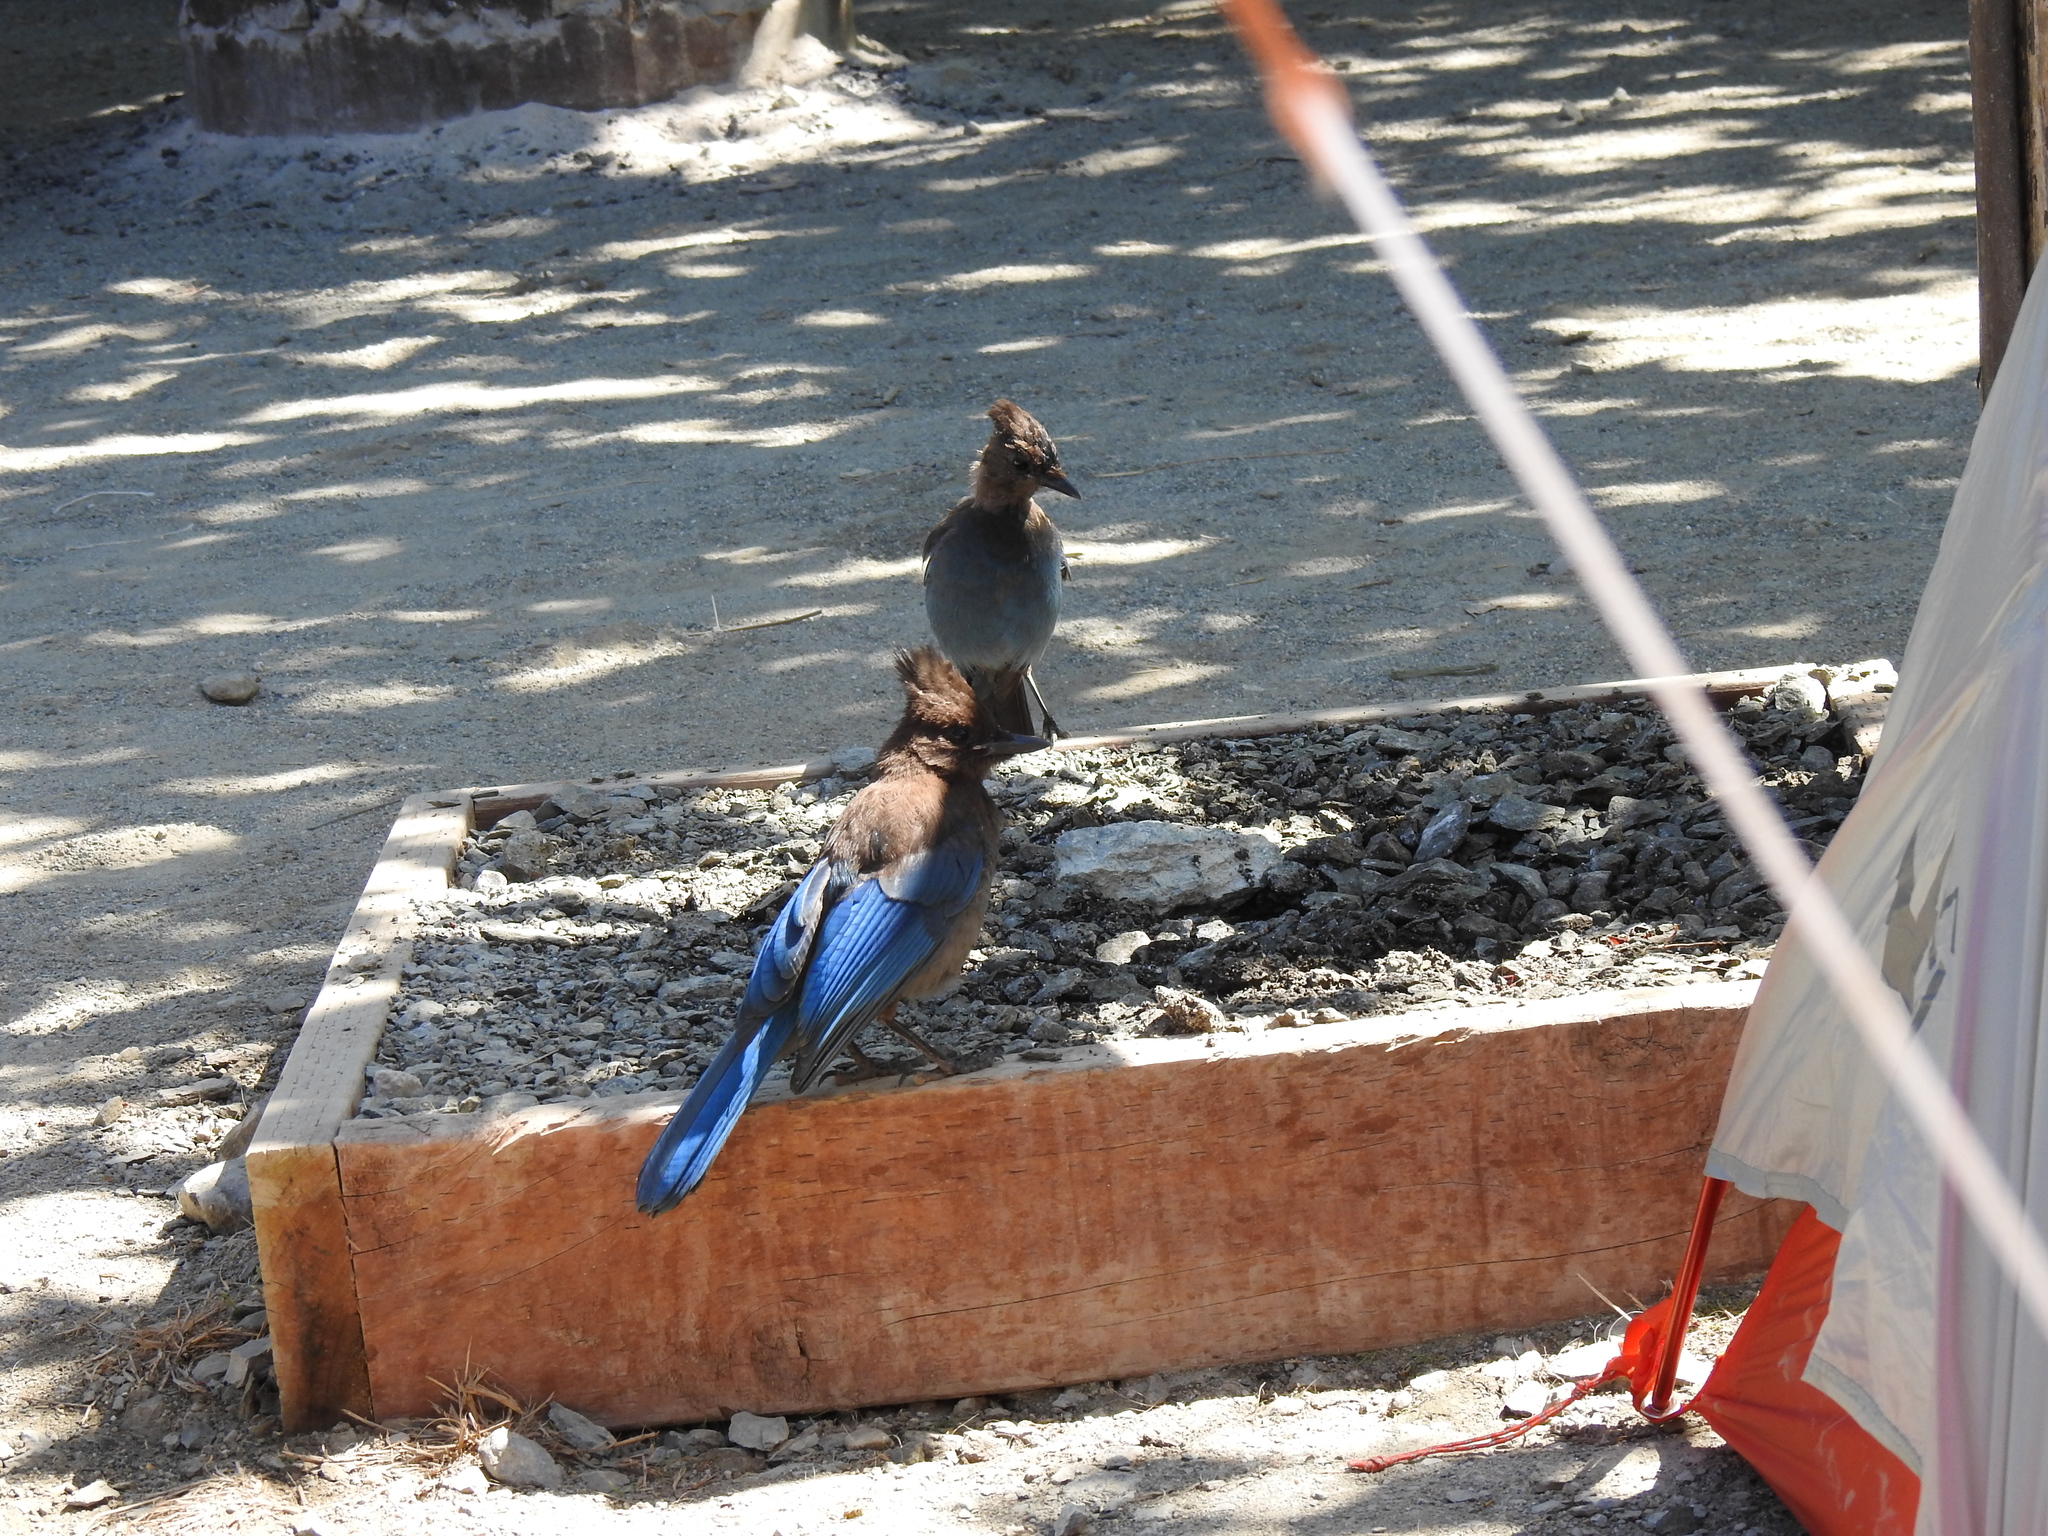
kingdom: Animalia
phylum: Chordata
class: Aves
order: Passeriformes
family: Corvidae
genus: Cyanocitta
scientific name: Cyanocitta stelleri
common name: Steller's jay
